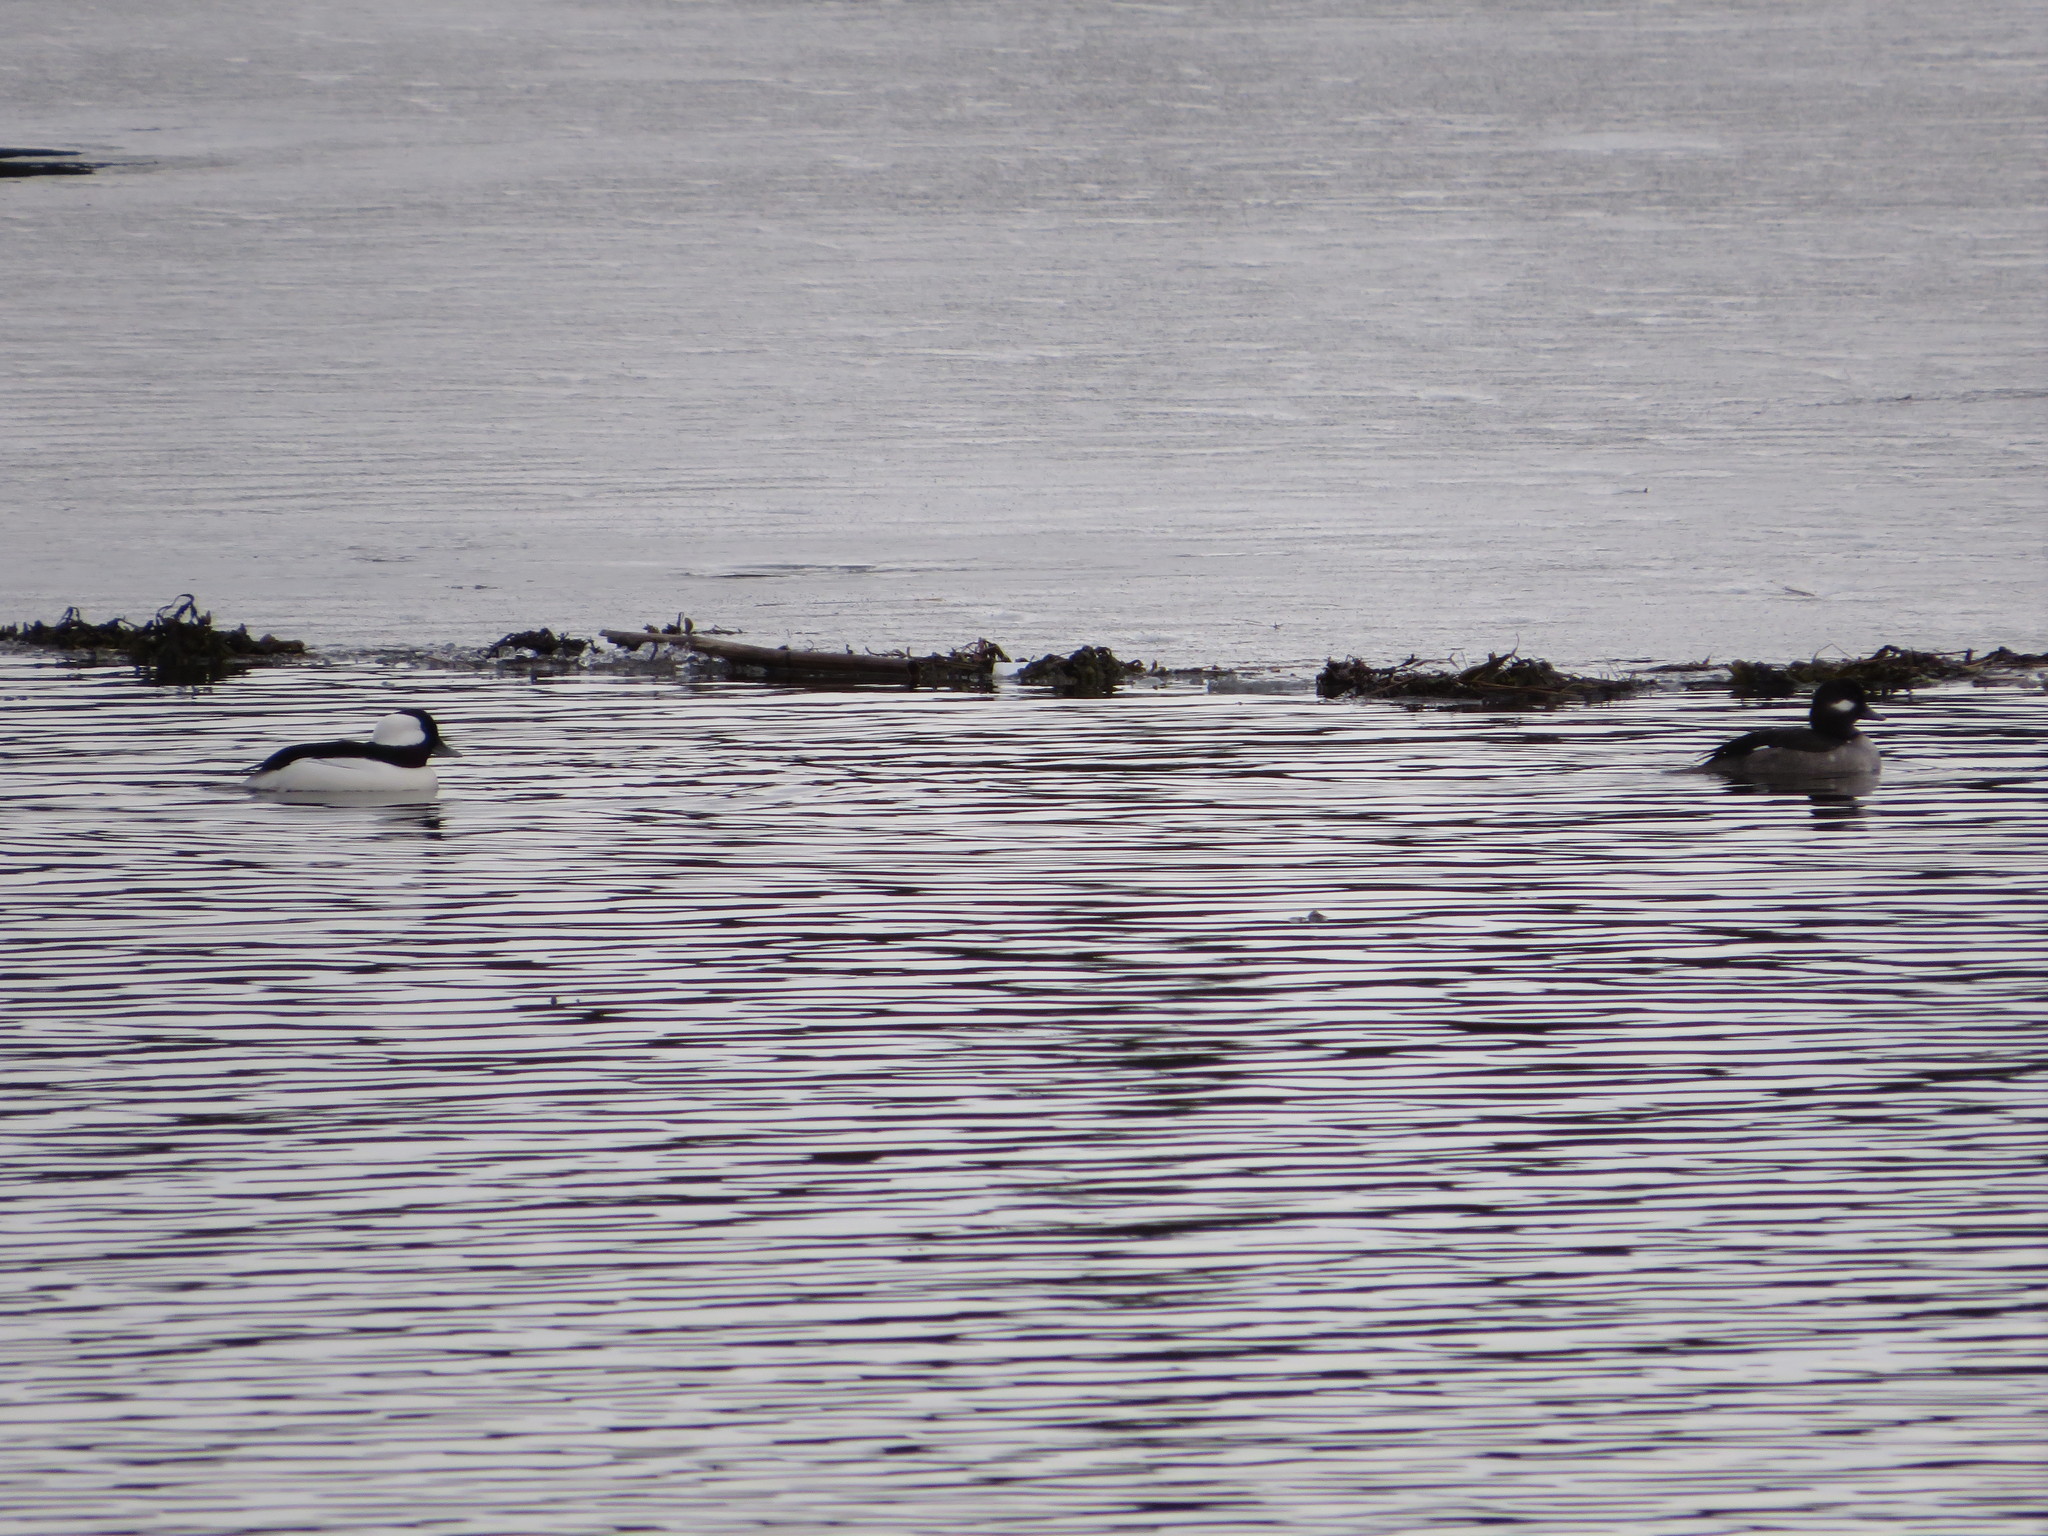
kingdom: Animalia
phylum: Chordata
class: Aves
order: Anseriformes
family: Anatidae
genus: Bucephala
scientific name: Bucephala albeola
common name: Bufflehead
